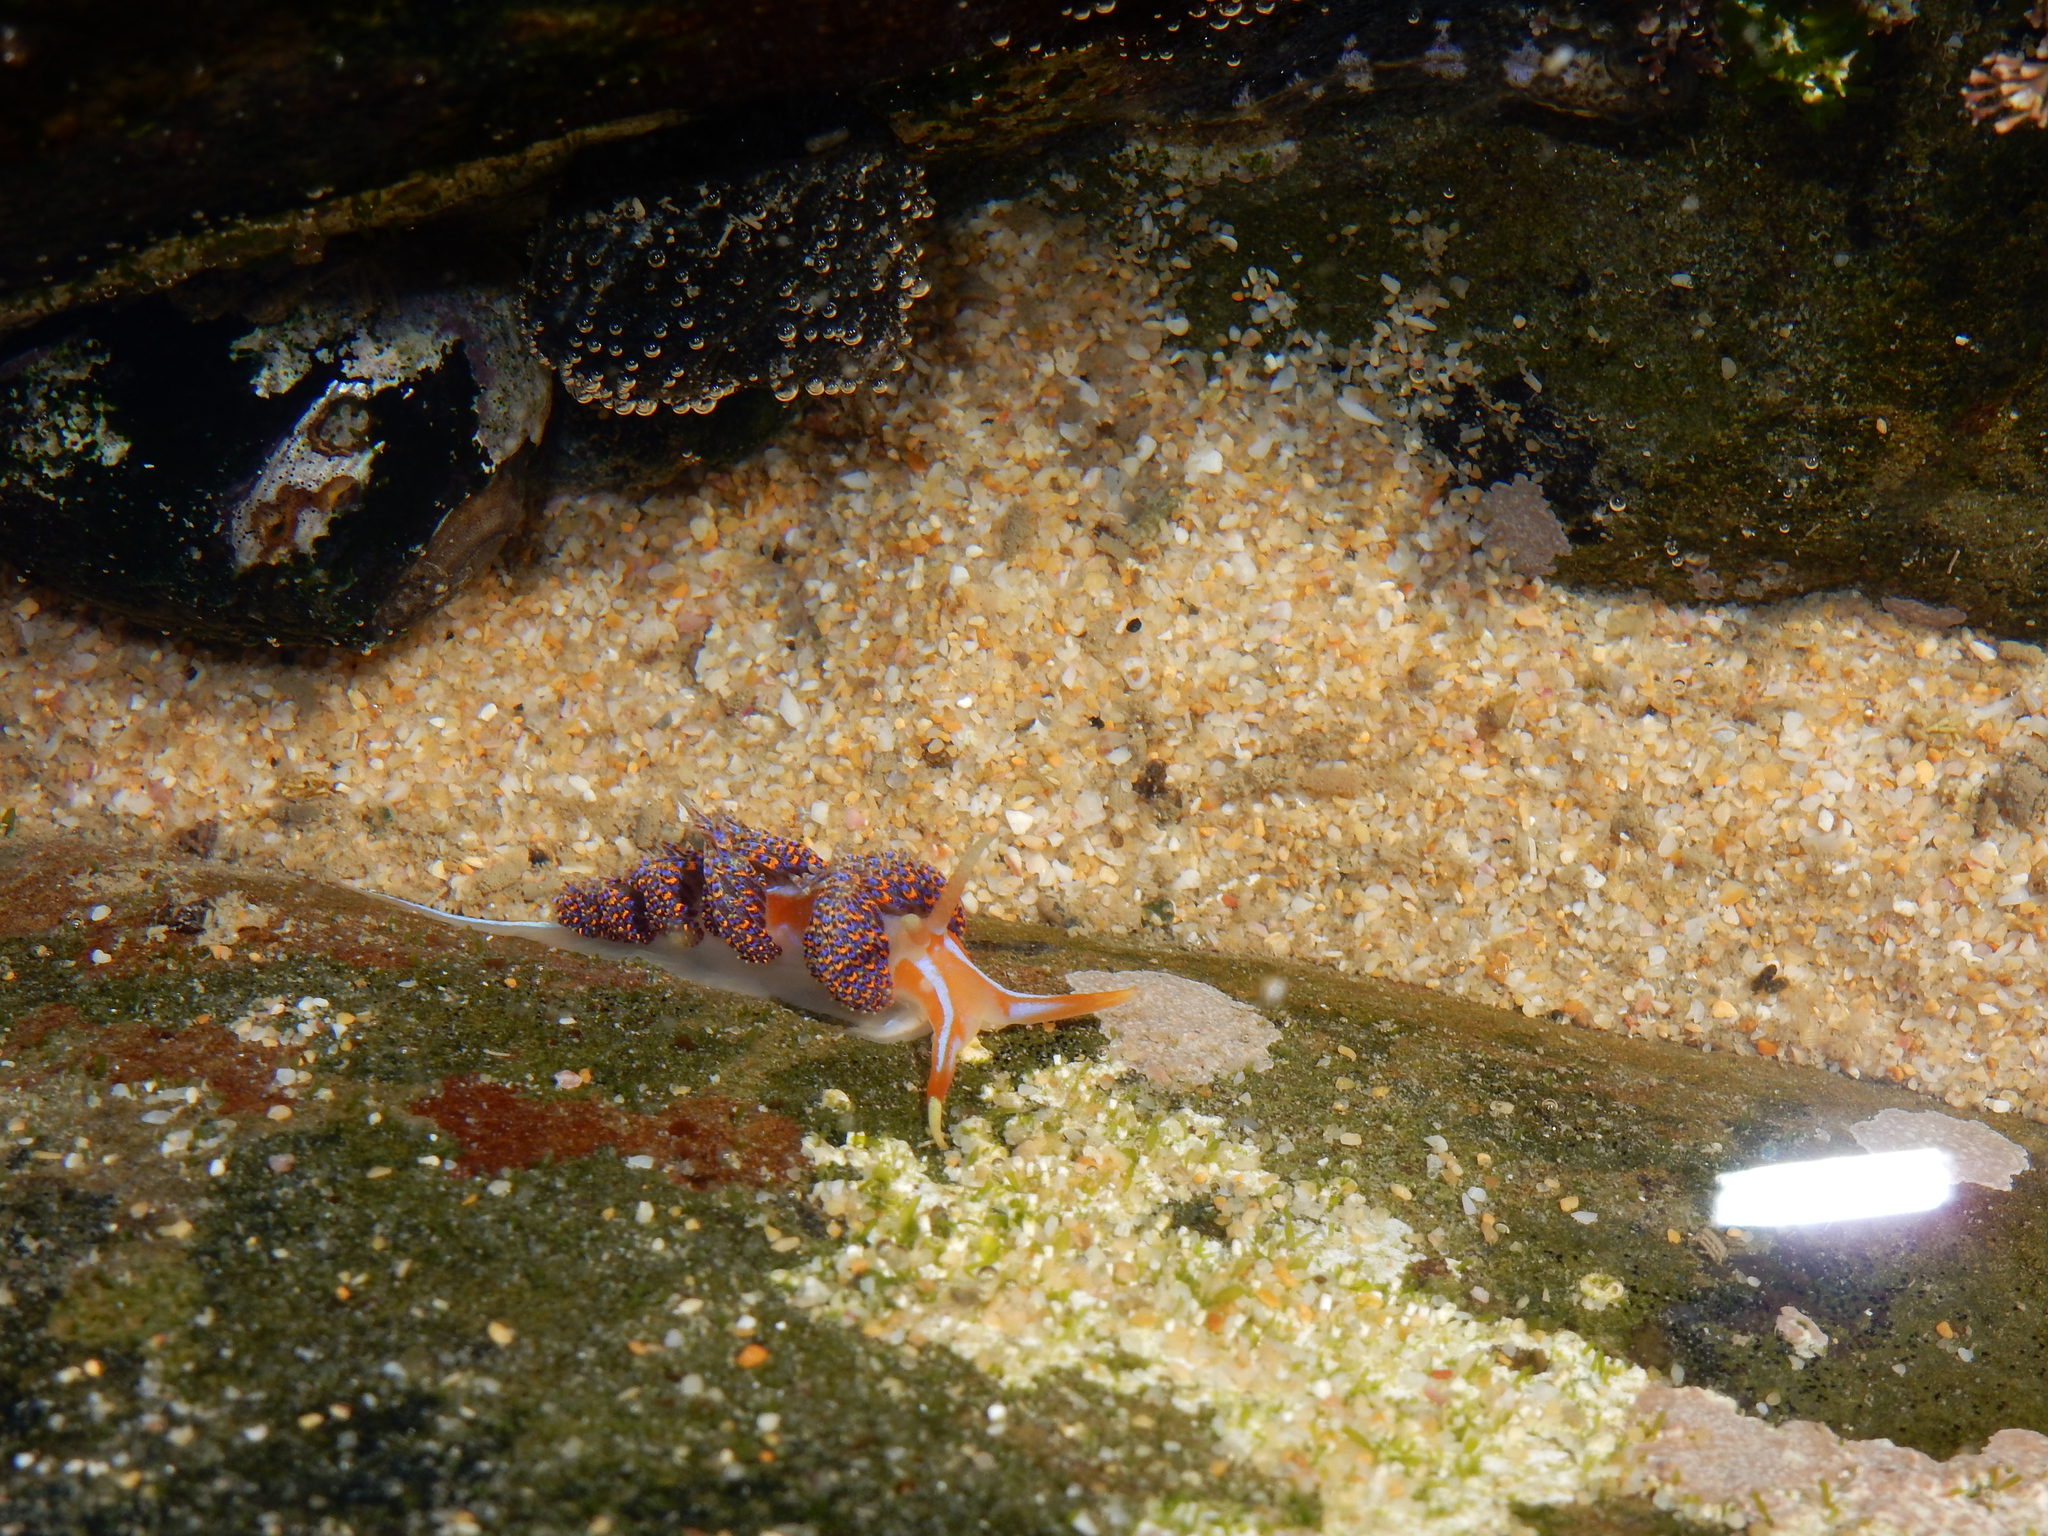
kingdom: Animalia
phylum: Mollusca
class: Gastropoda
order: Nudibranchia
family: Myrrhinidae
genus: Godiva
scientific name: Godiva quadricolor
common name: Four-colour nudibranch
